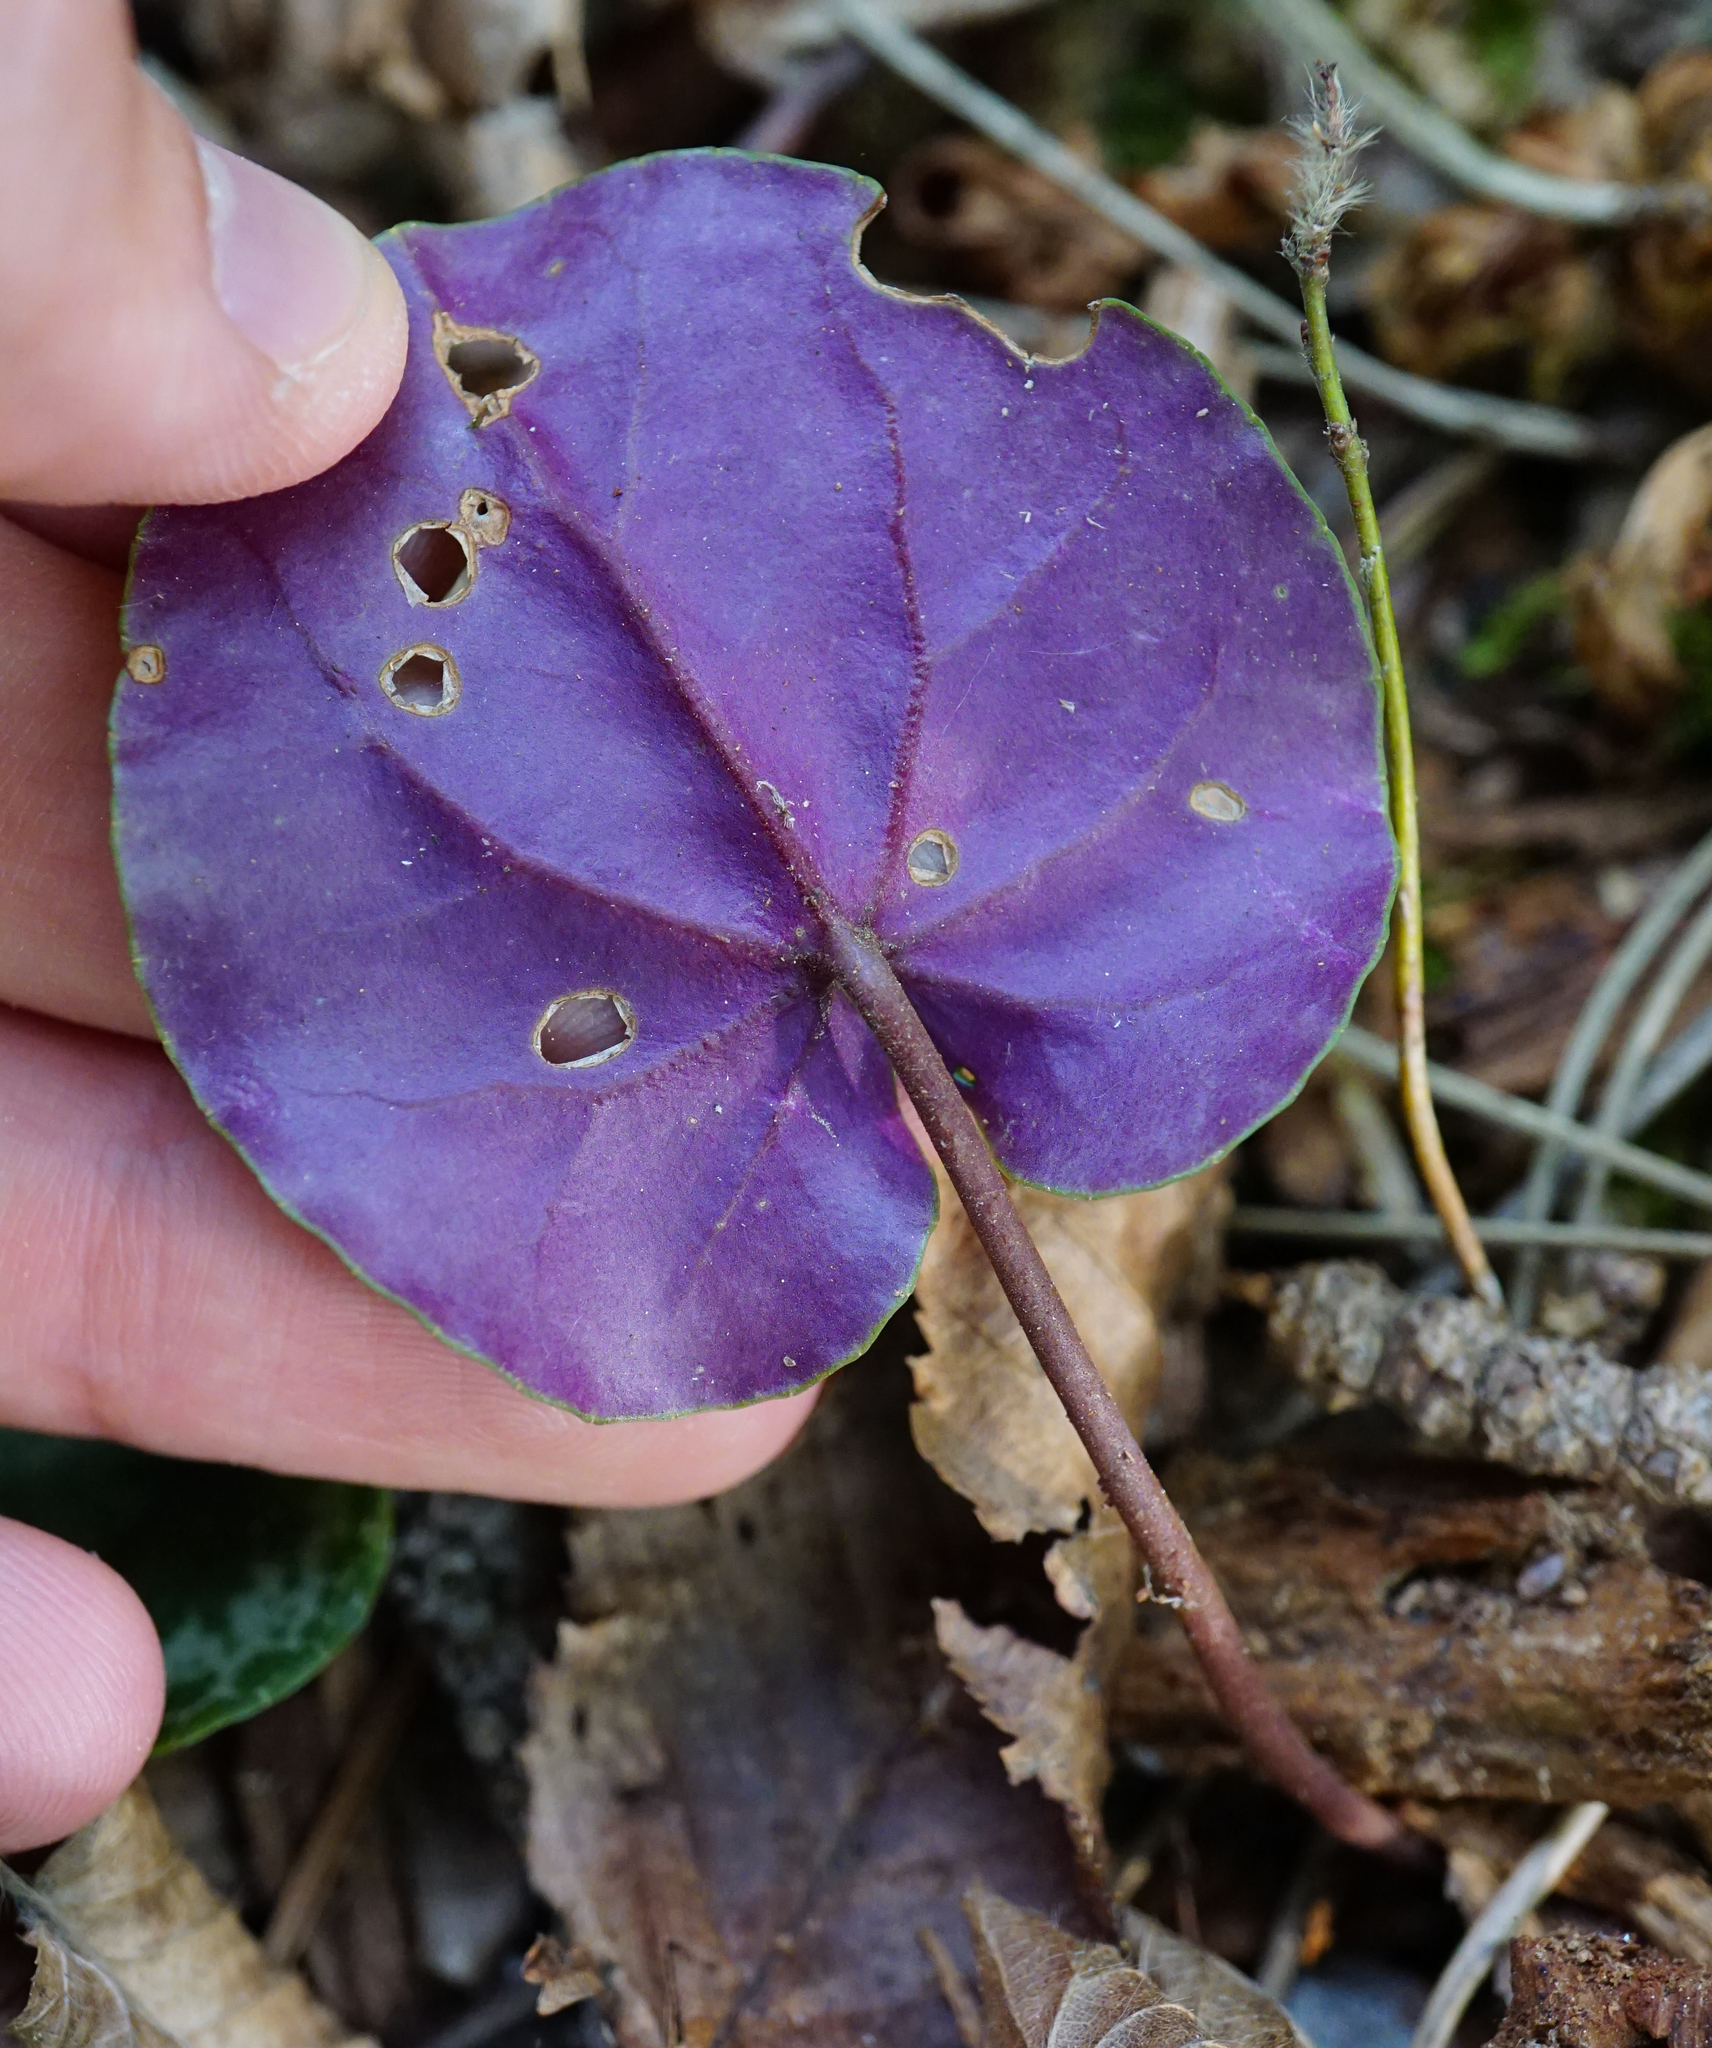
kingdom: Plantae
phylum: Tracheophyta
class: Magnoliopsida
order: Ericales
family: Primulaceae
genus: Cyclamen
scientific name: Cyclamen purpurascens
